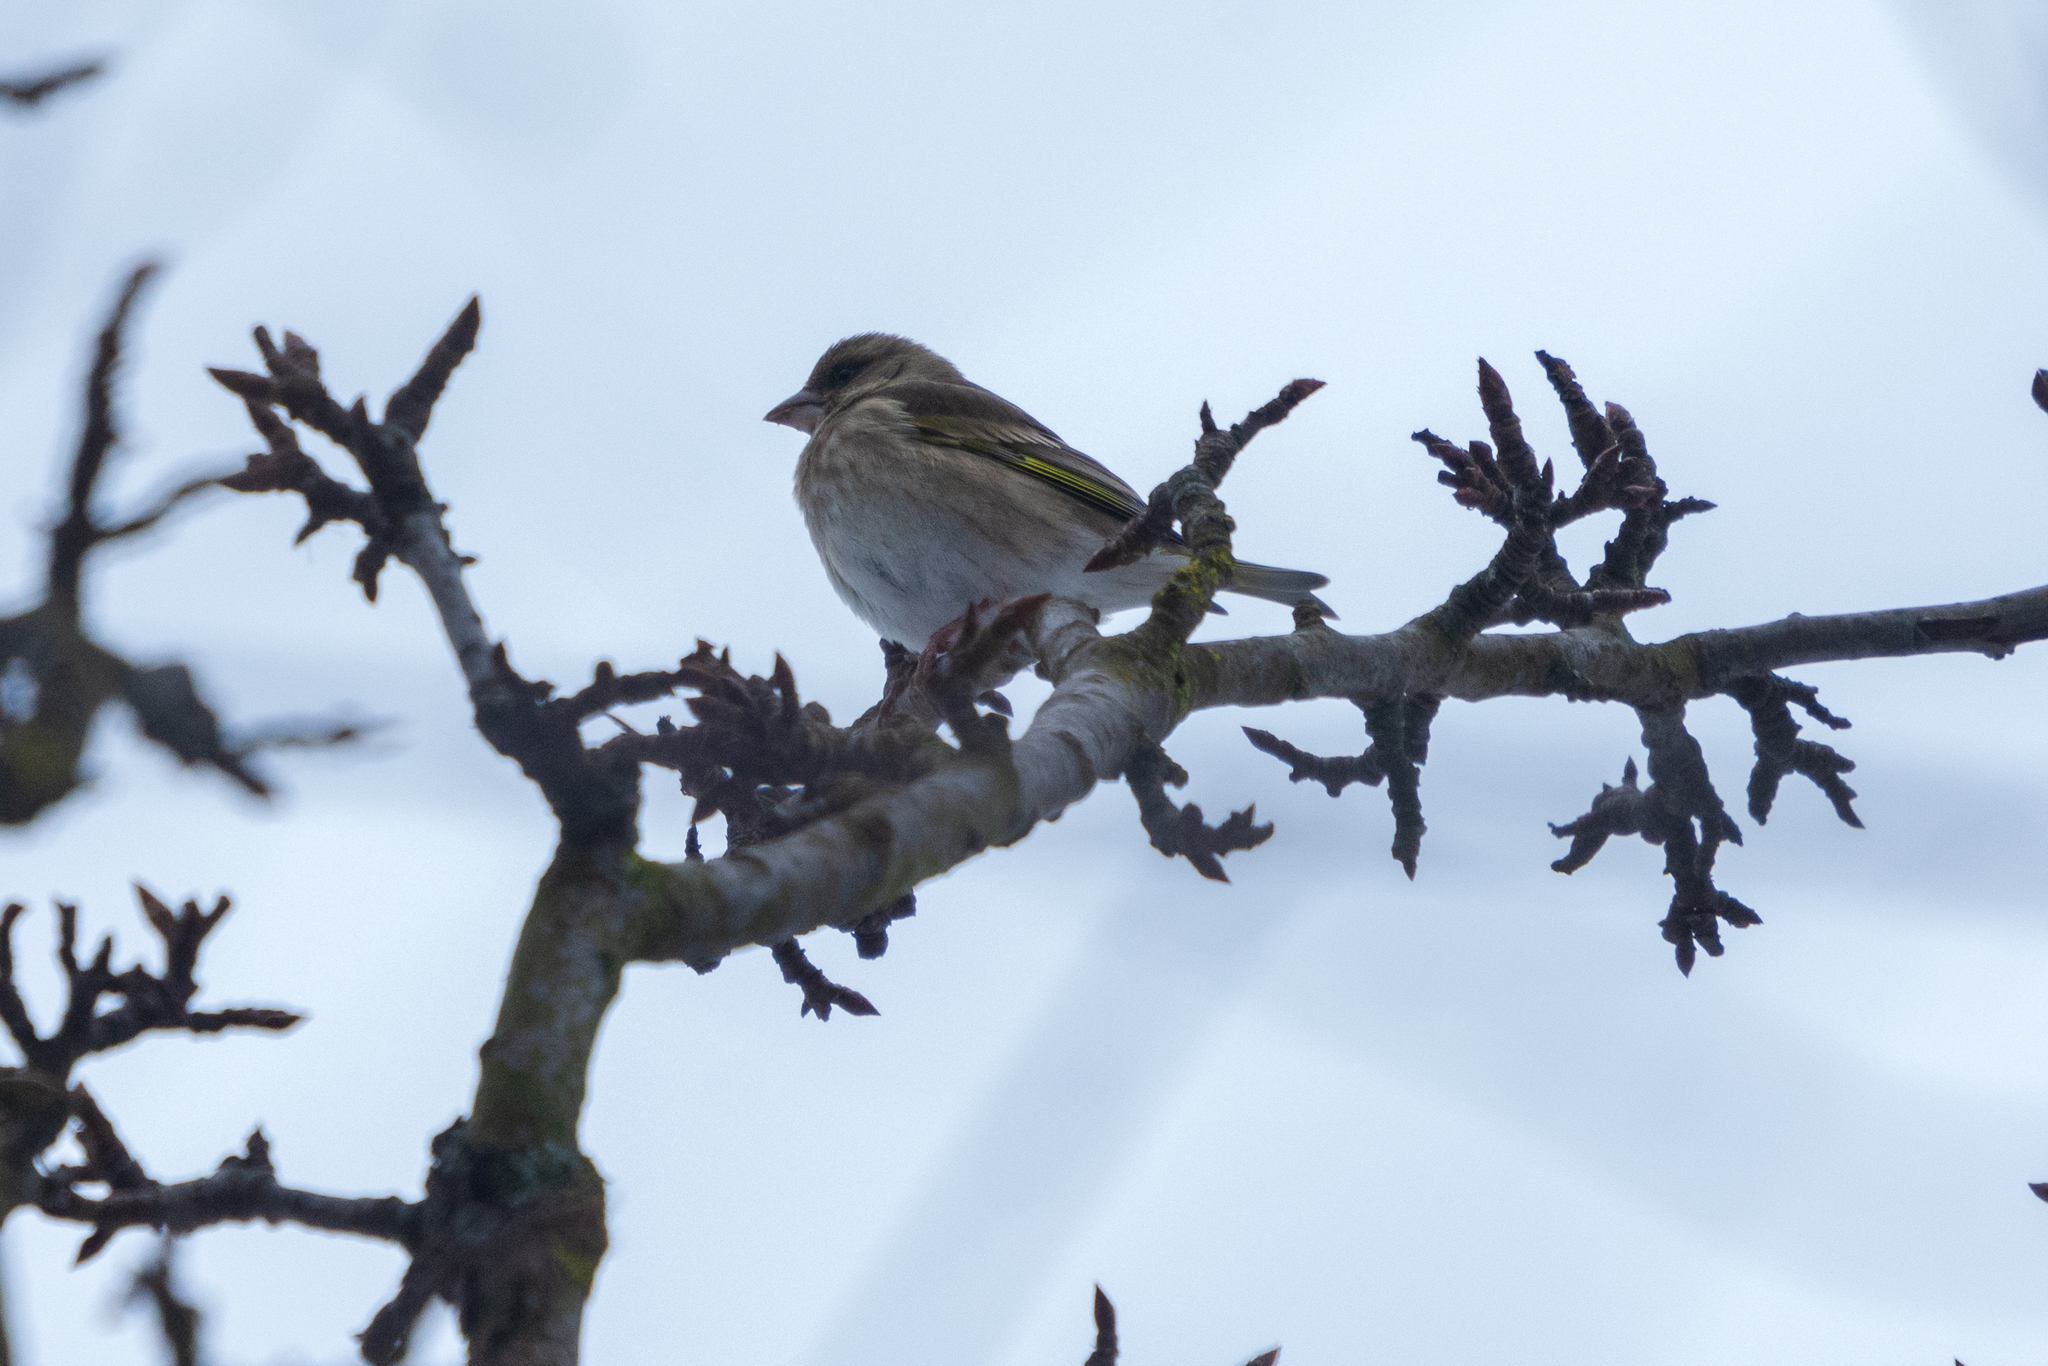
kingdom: Plantae
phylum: Tracheophyta
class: Liliopsida
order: Poales
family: Poaceae
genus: Chloris
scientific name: Chloris chloris
